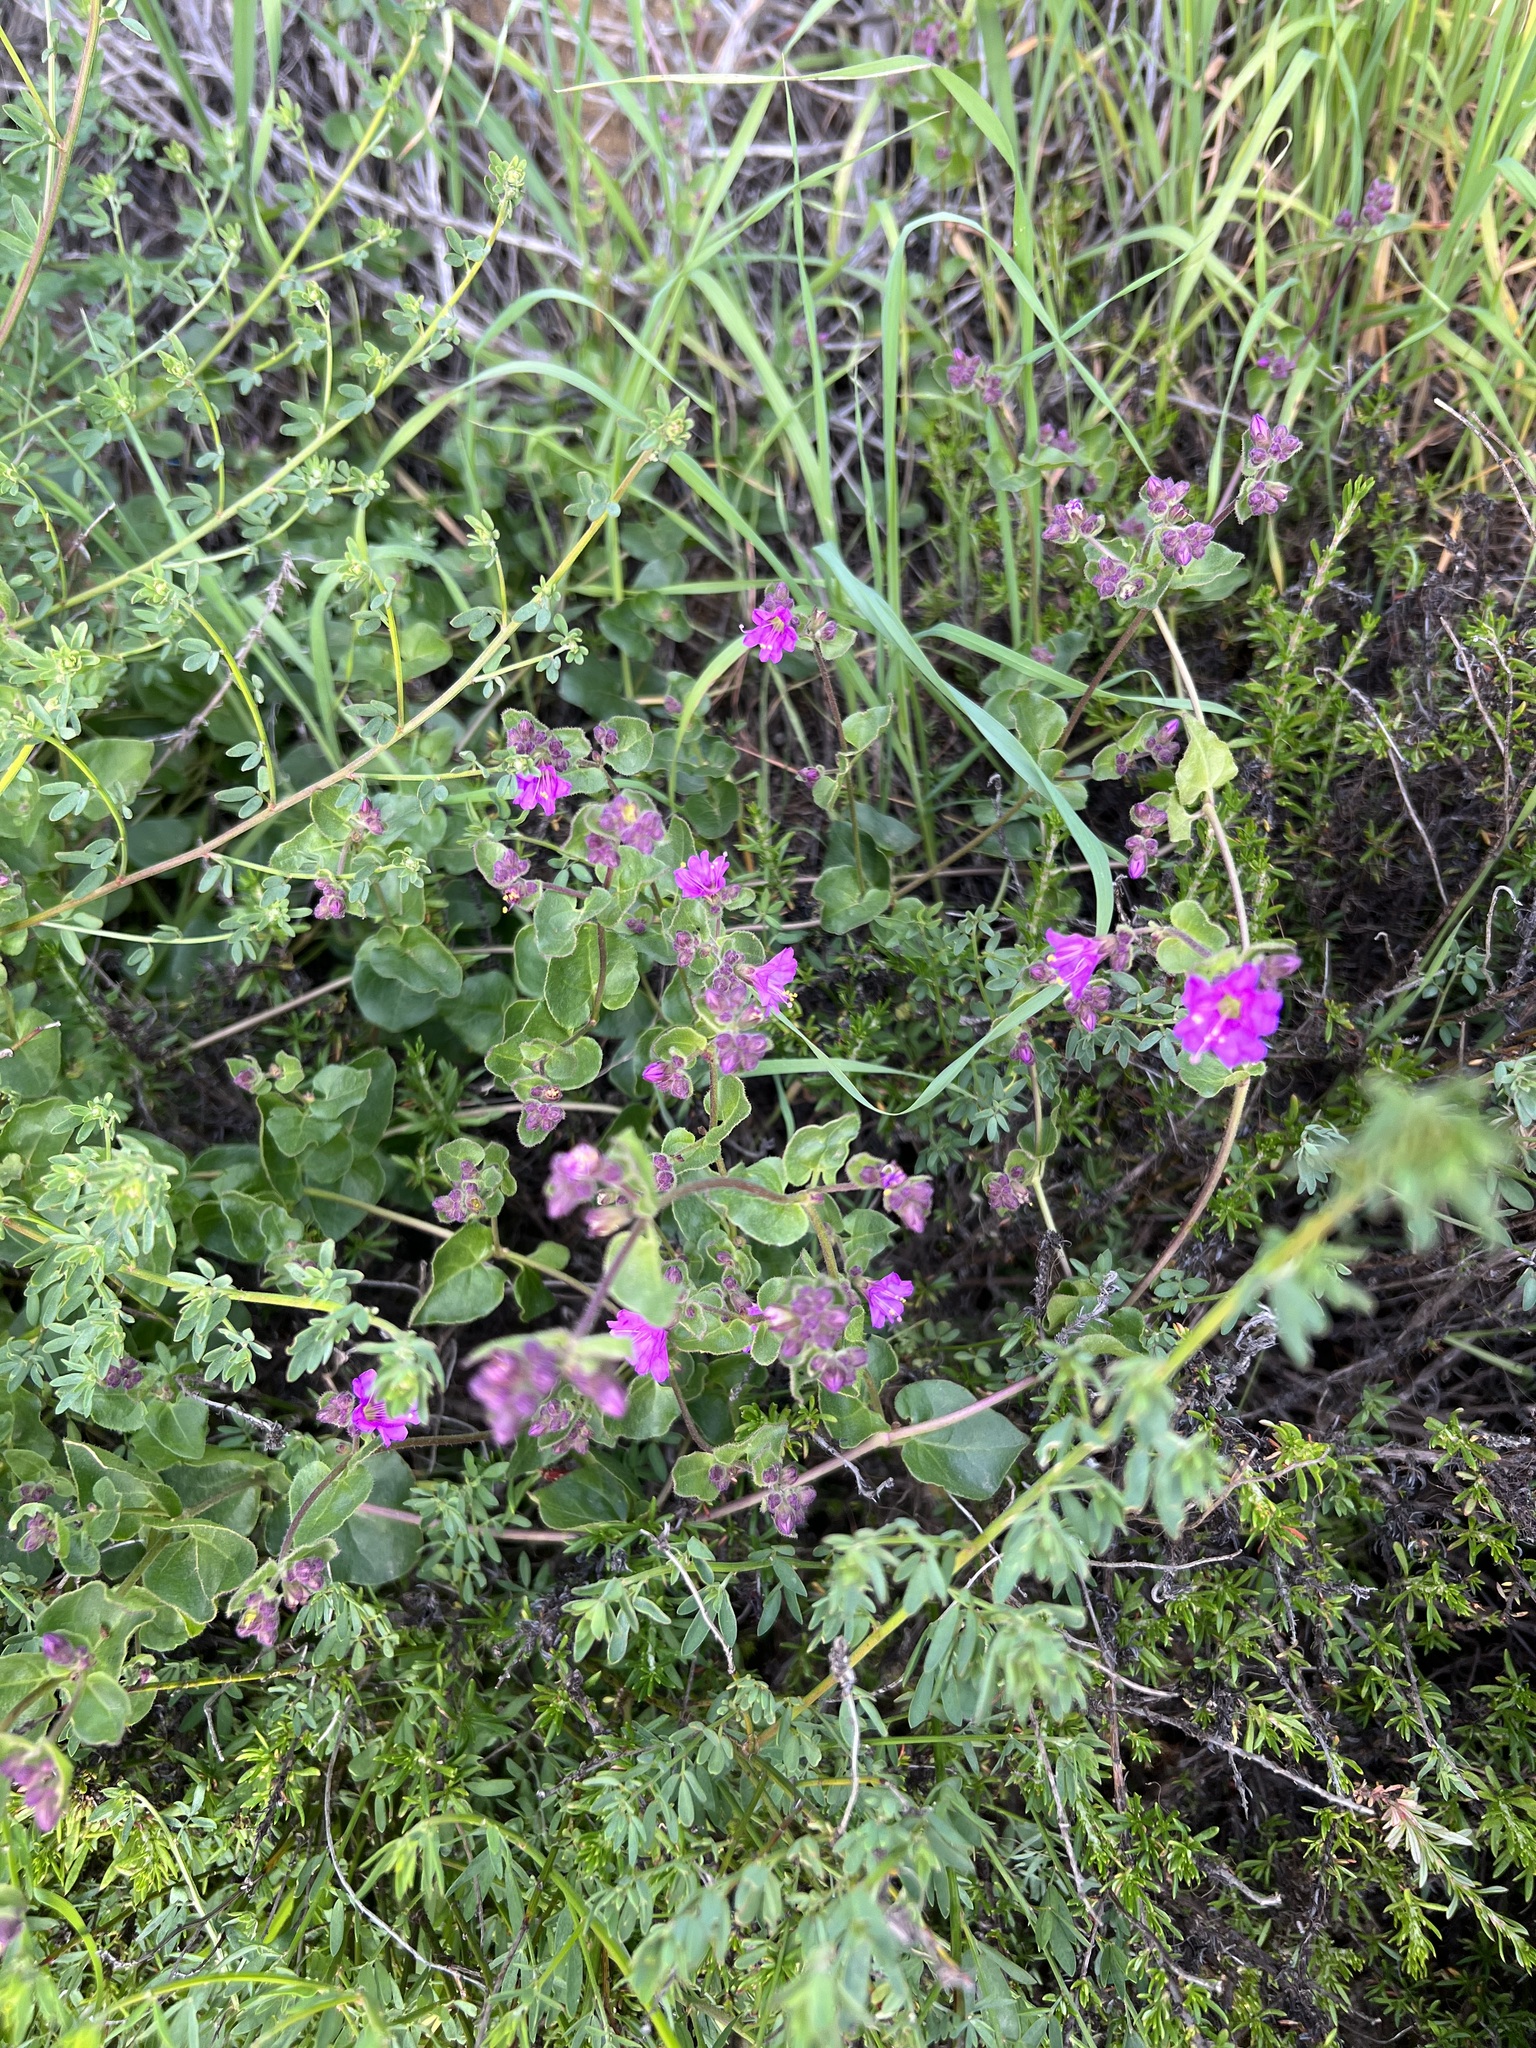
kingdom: Plantae
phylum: Tracheophyta
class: Magnoliopsida
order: Caryophyllales
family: Nyctaginaceae
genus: Mirabilis
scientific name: Mirabilis laevis
